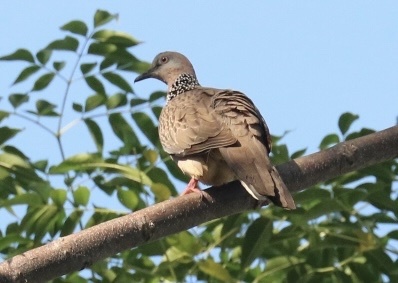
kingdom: Animalia
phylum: Chordata
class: Aves
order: Columbiformes
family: Columbidae
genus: Spilopelia
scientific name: Spilopelia chinensis
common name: Spotted dove
